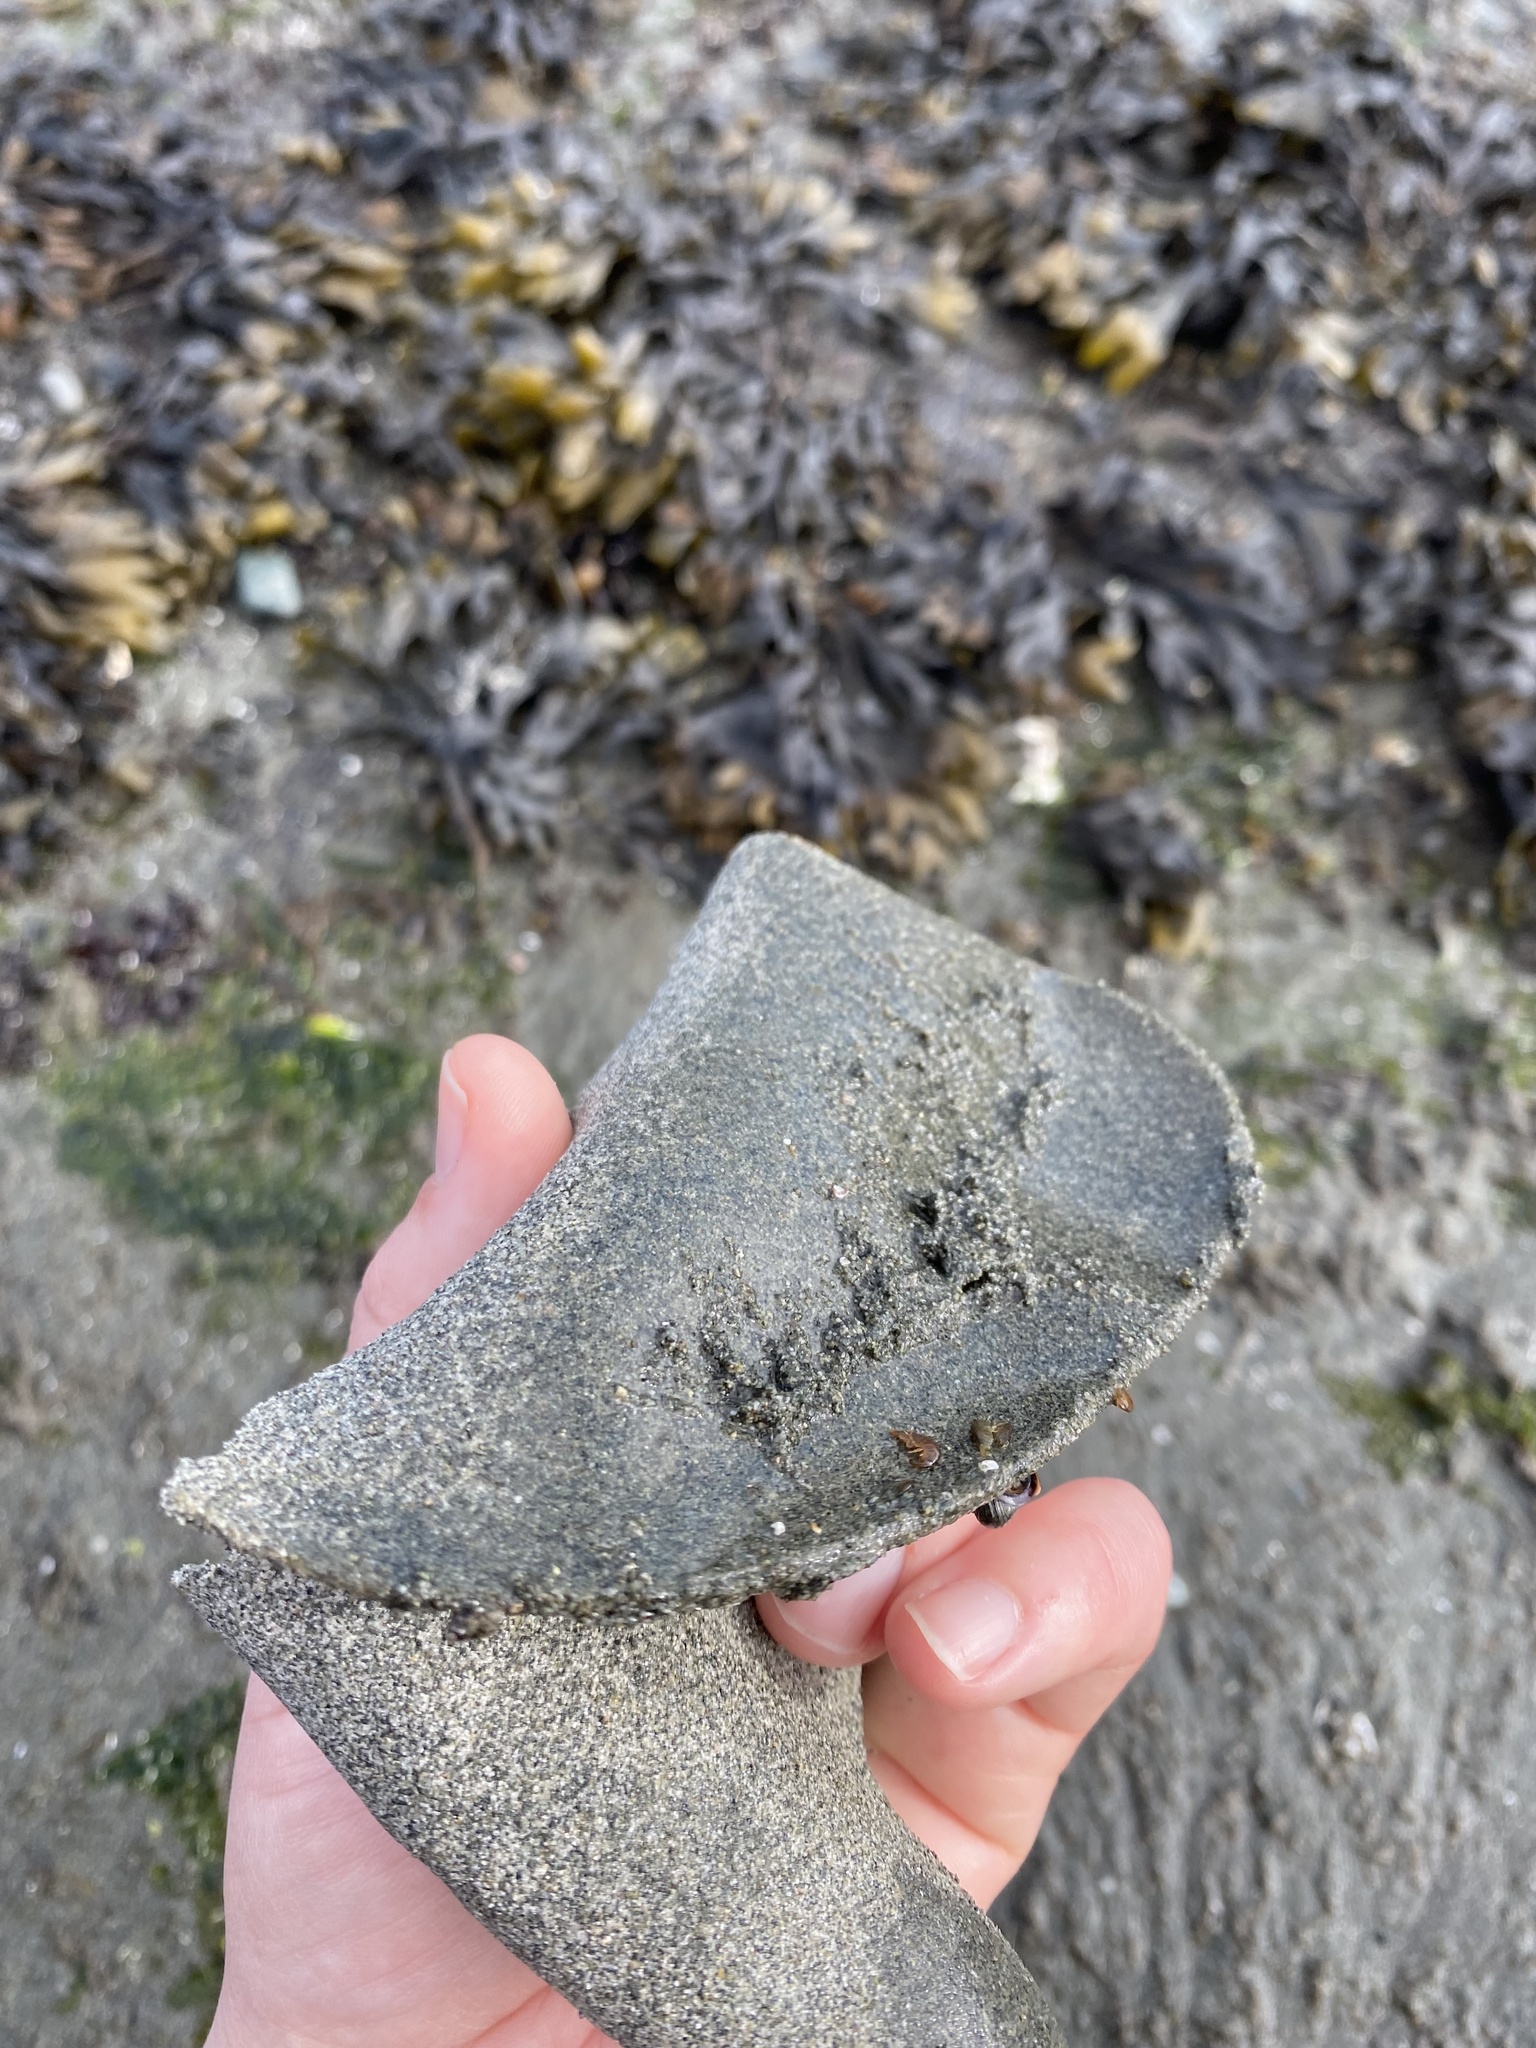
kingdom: Animalia
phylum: Mollusca
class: Gastropoda
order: Littorinimorpha
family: Naticidae
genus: Neverita
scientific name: Neverita lewisii
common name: Lewis' moonsnail
